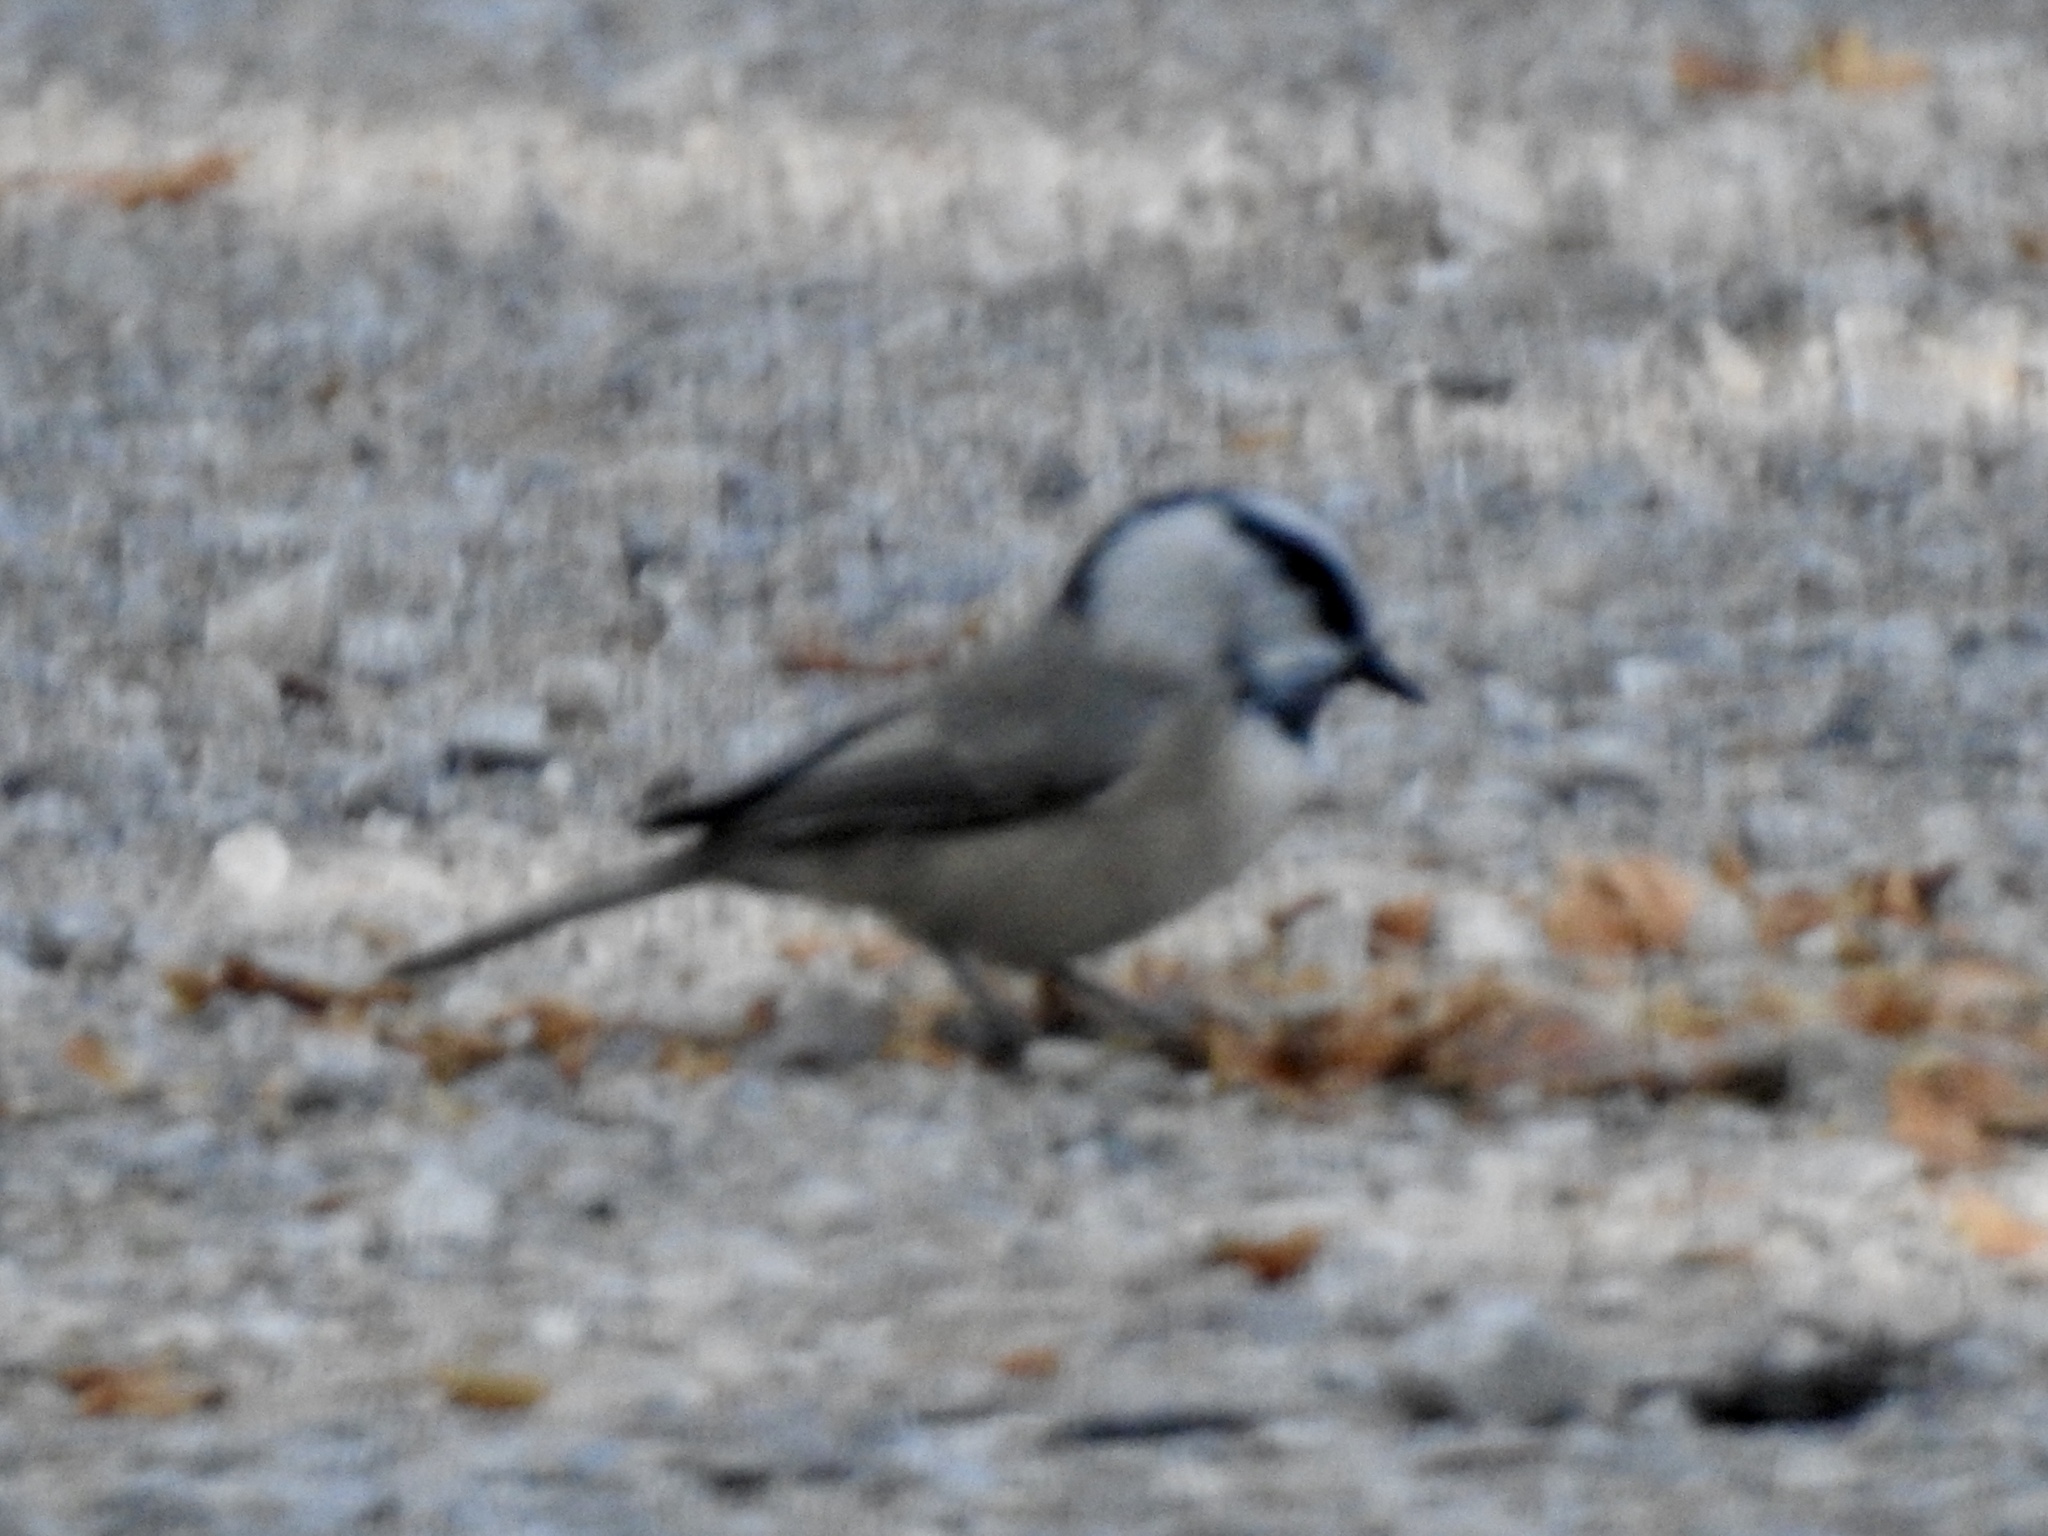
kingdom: Animalia
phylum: Chordata
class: Aves
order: Passeriformes
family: Paridae
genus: Poecile
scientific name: Poecile gambeli
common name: Mountain chickadee
